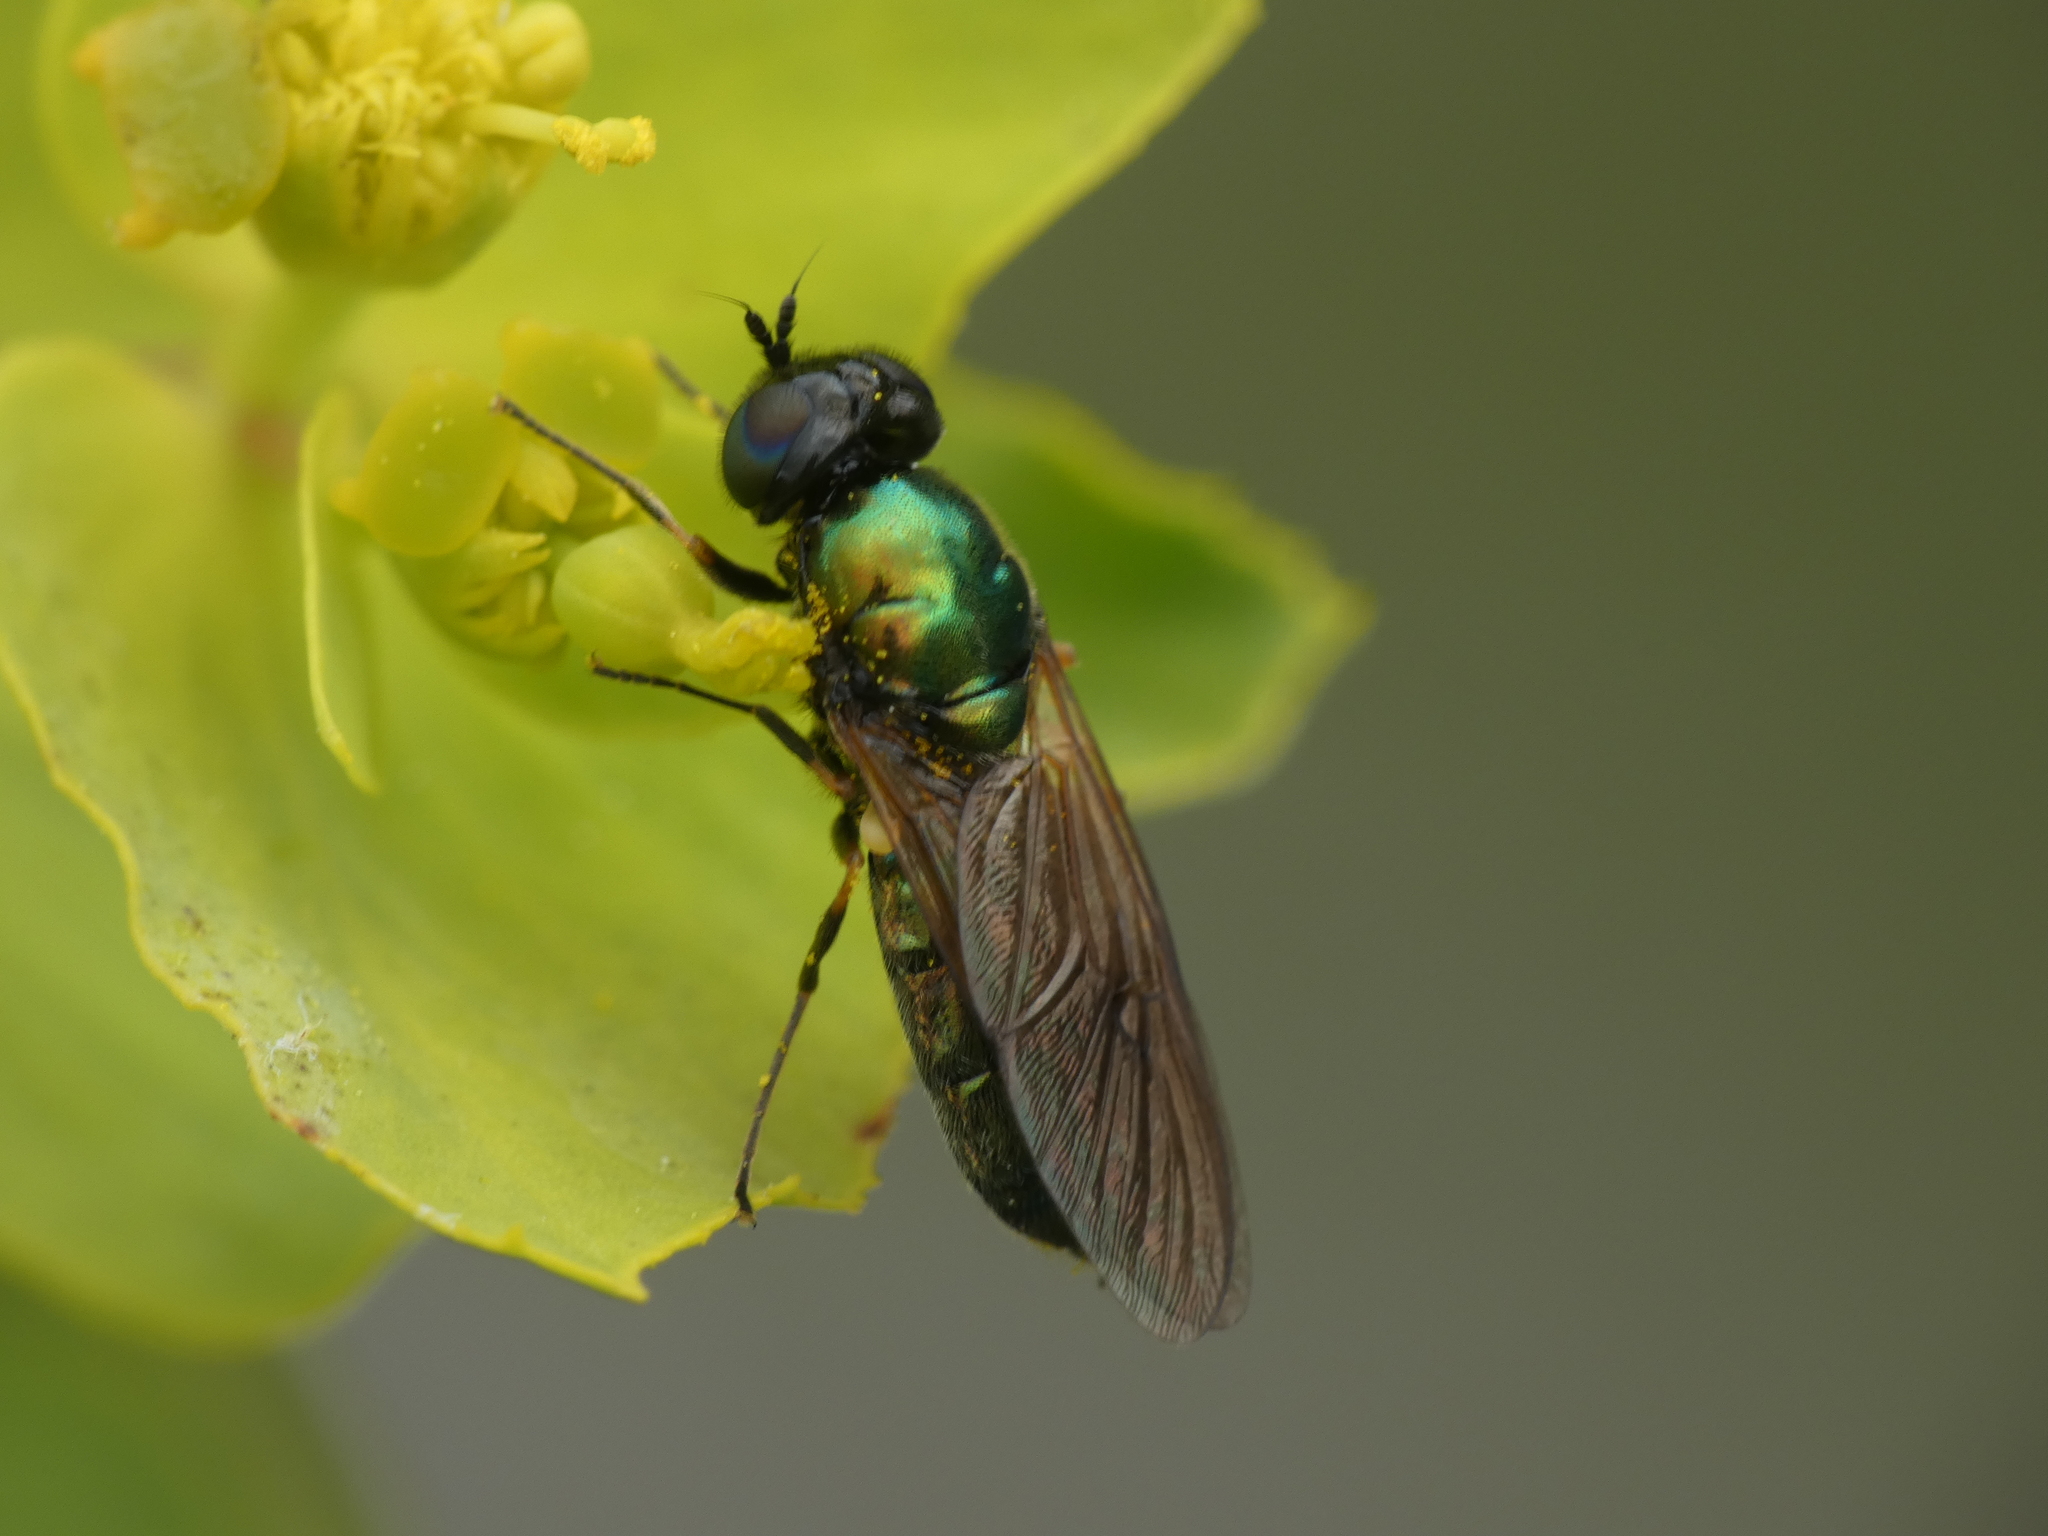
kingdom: Animalia
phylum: Arthropoda
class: Insecta
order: Diptera
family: Stratiomyidae
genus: Chloromyia
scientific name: Chloromyia formosa
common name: Soldier fly
